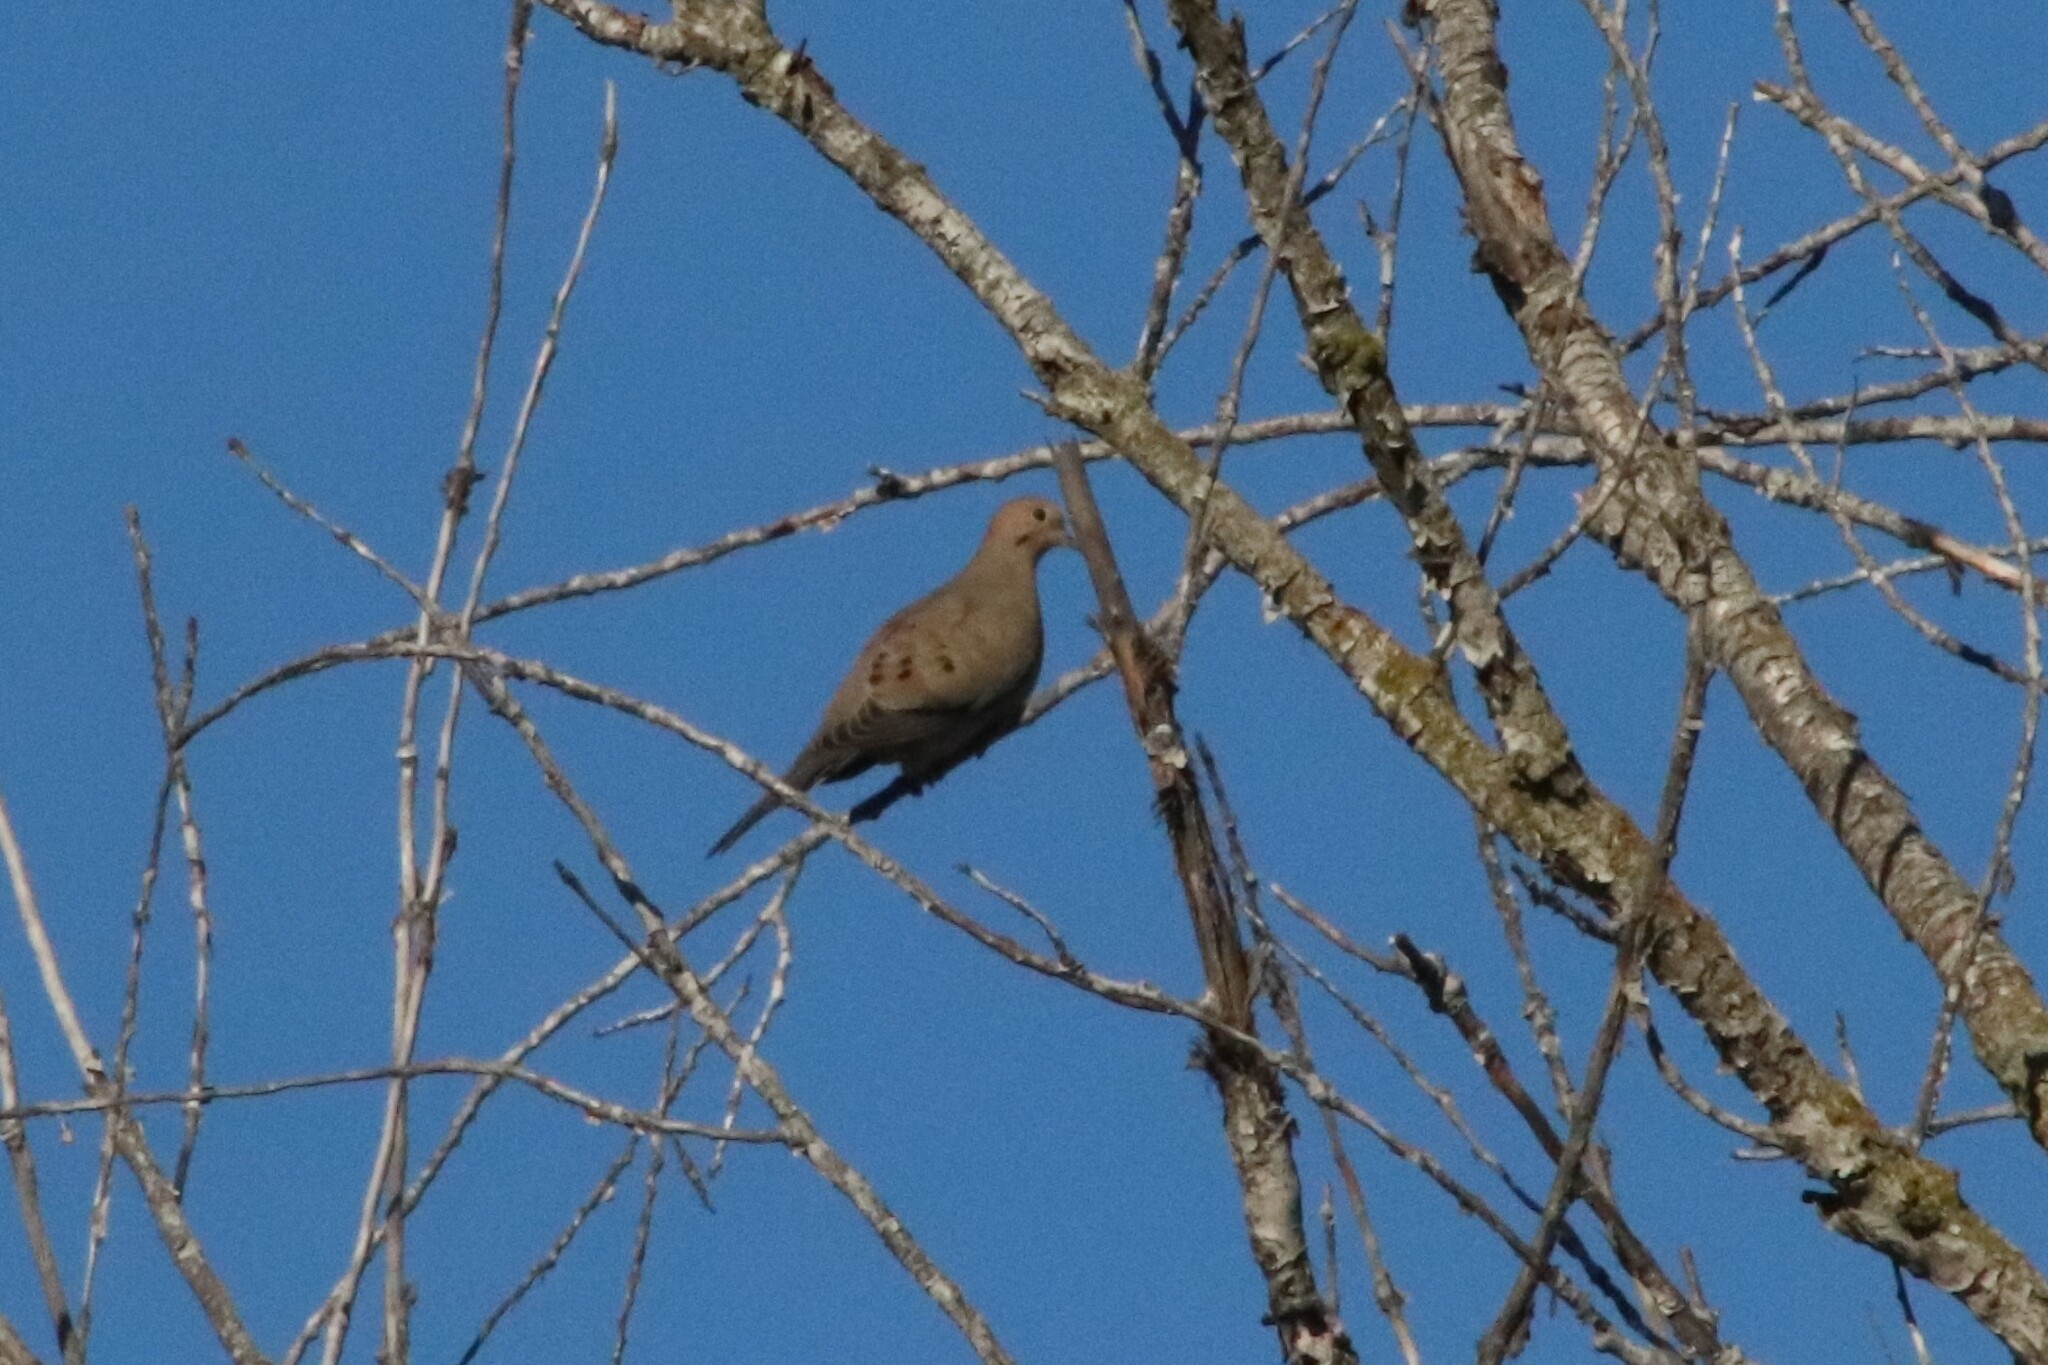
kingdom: Animalia
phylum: Chordata
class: Aves
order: Columbiformes
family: Columbidae
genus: Zenaida
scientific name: Zenaida macroura
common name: Mourning dove
